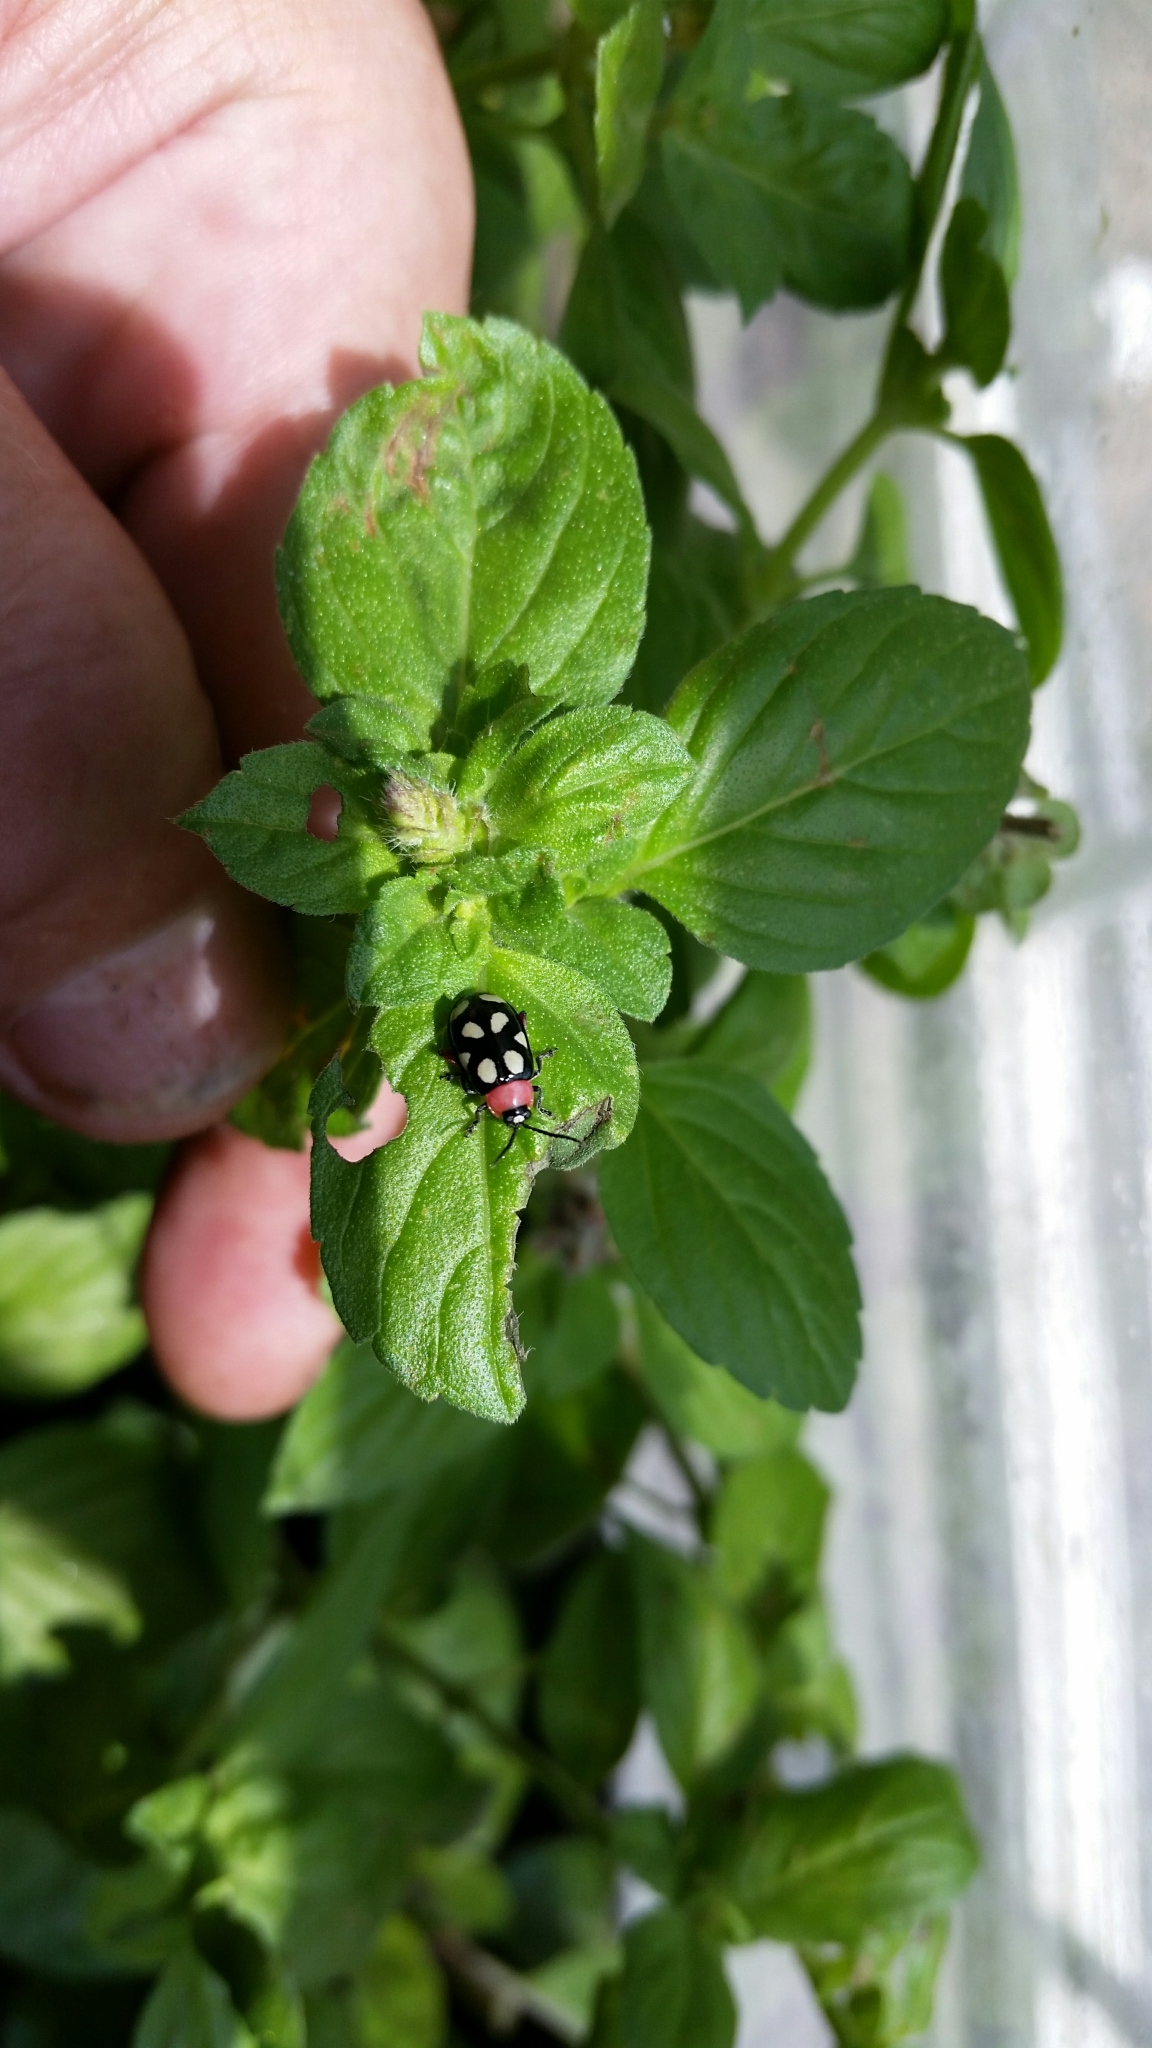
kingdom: Animalia
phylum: Arthropoda
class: Insecta
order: Coleoptera
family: Chrysomelidae
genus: Omophoita
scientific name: Omophoita cyanipennis
